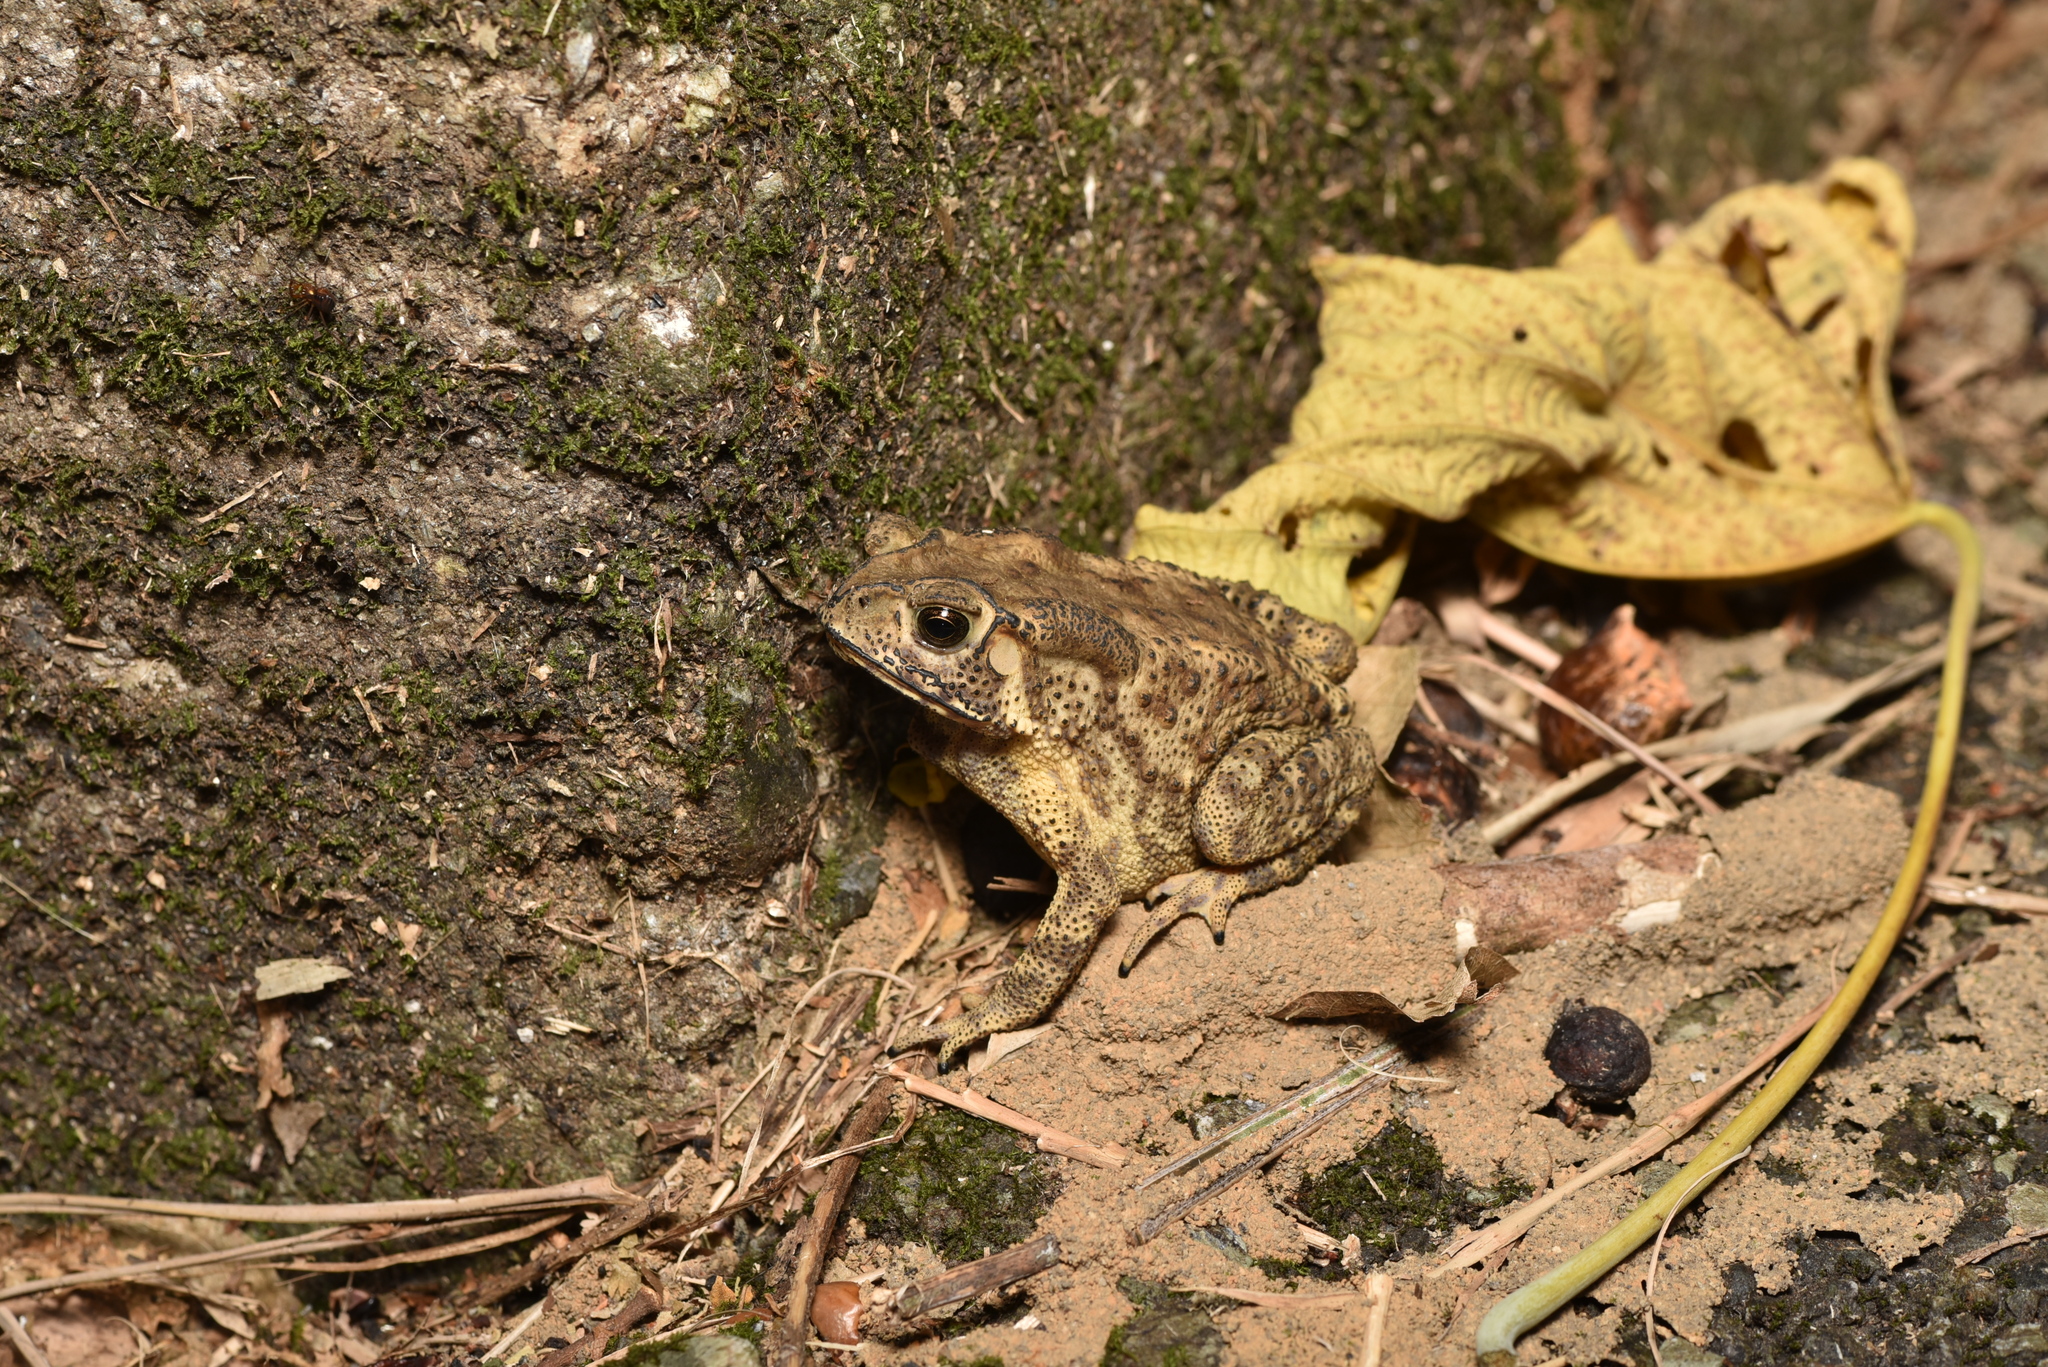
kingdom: Animalia
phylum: Chordata
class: Amphibia
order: Anura
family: Bufonidae
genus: Duttaphrynus
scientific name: Duttaphrynus melanostictus
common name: Common sunda toad
